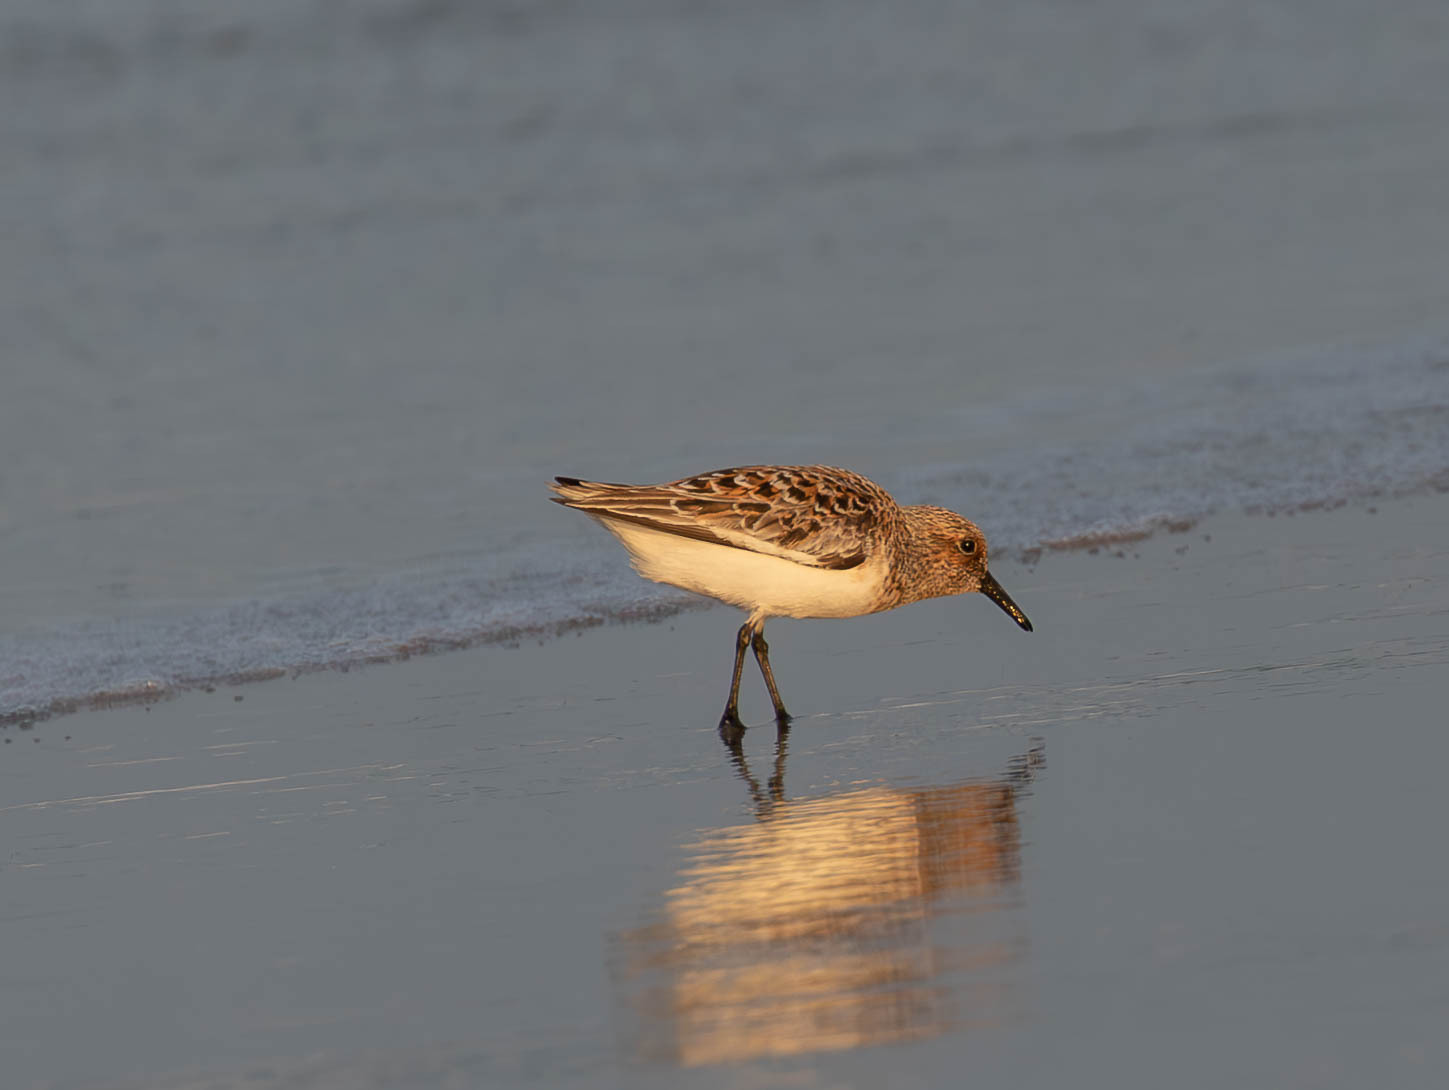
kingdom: Animalia
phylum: Chordata
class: Aves
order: Charadriiformes
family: Scolopacidae
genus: Calidris
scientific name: Calidris alba
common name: Sanderling
